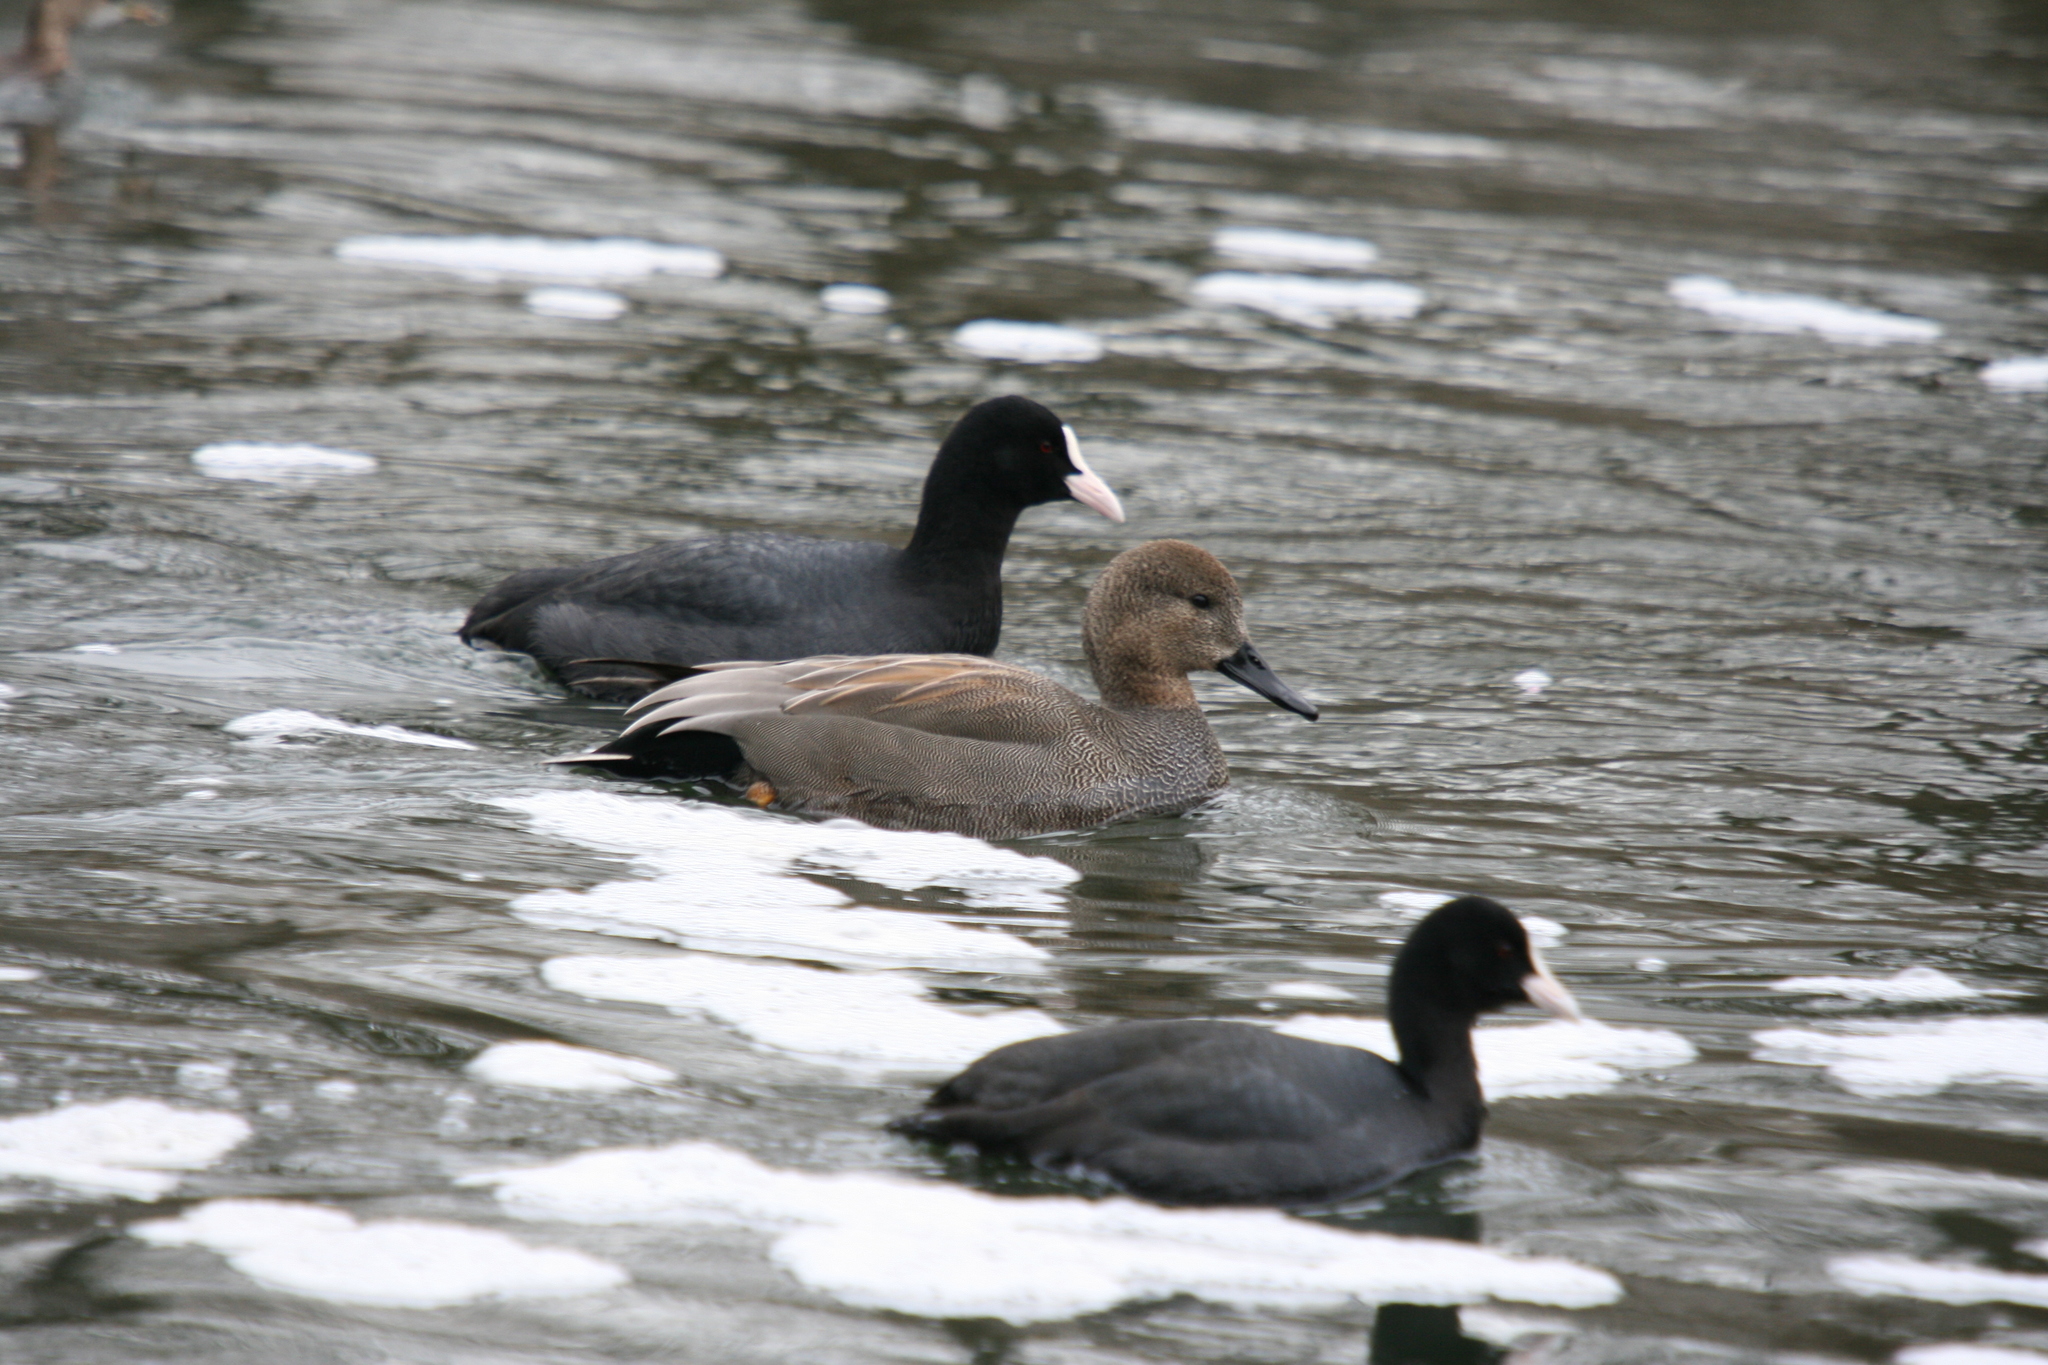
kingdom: Animalia
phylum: Chordata
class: Aves
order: Anseriformes
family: Anatidae
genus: Mareca
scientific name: Mareca strepera
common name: Gadwall
